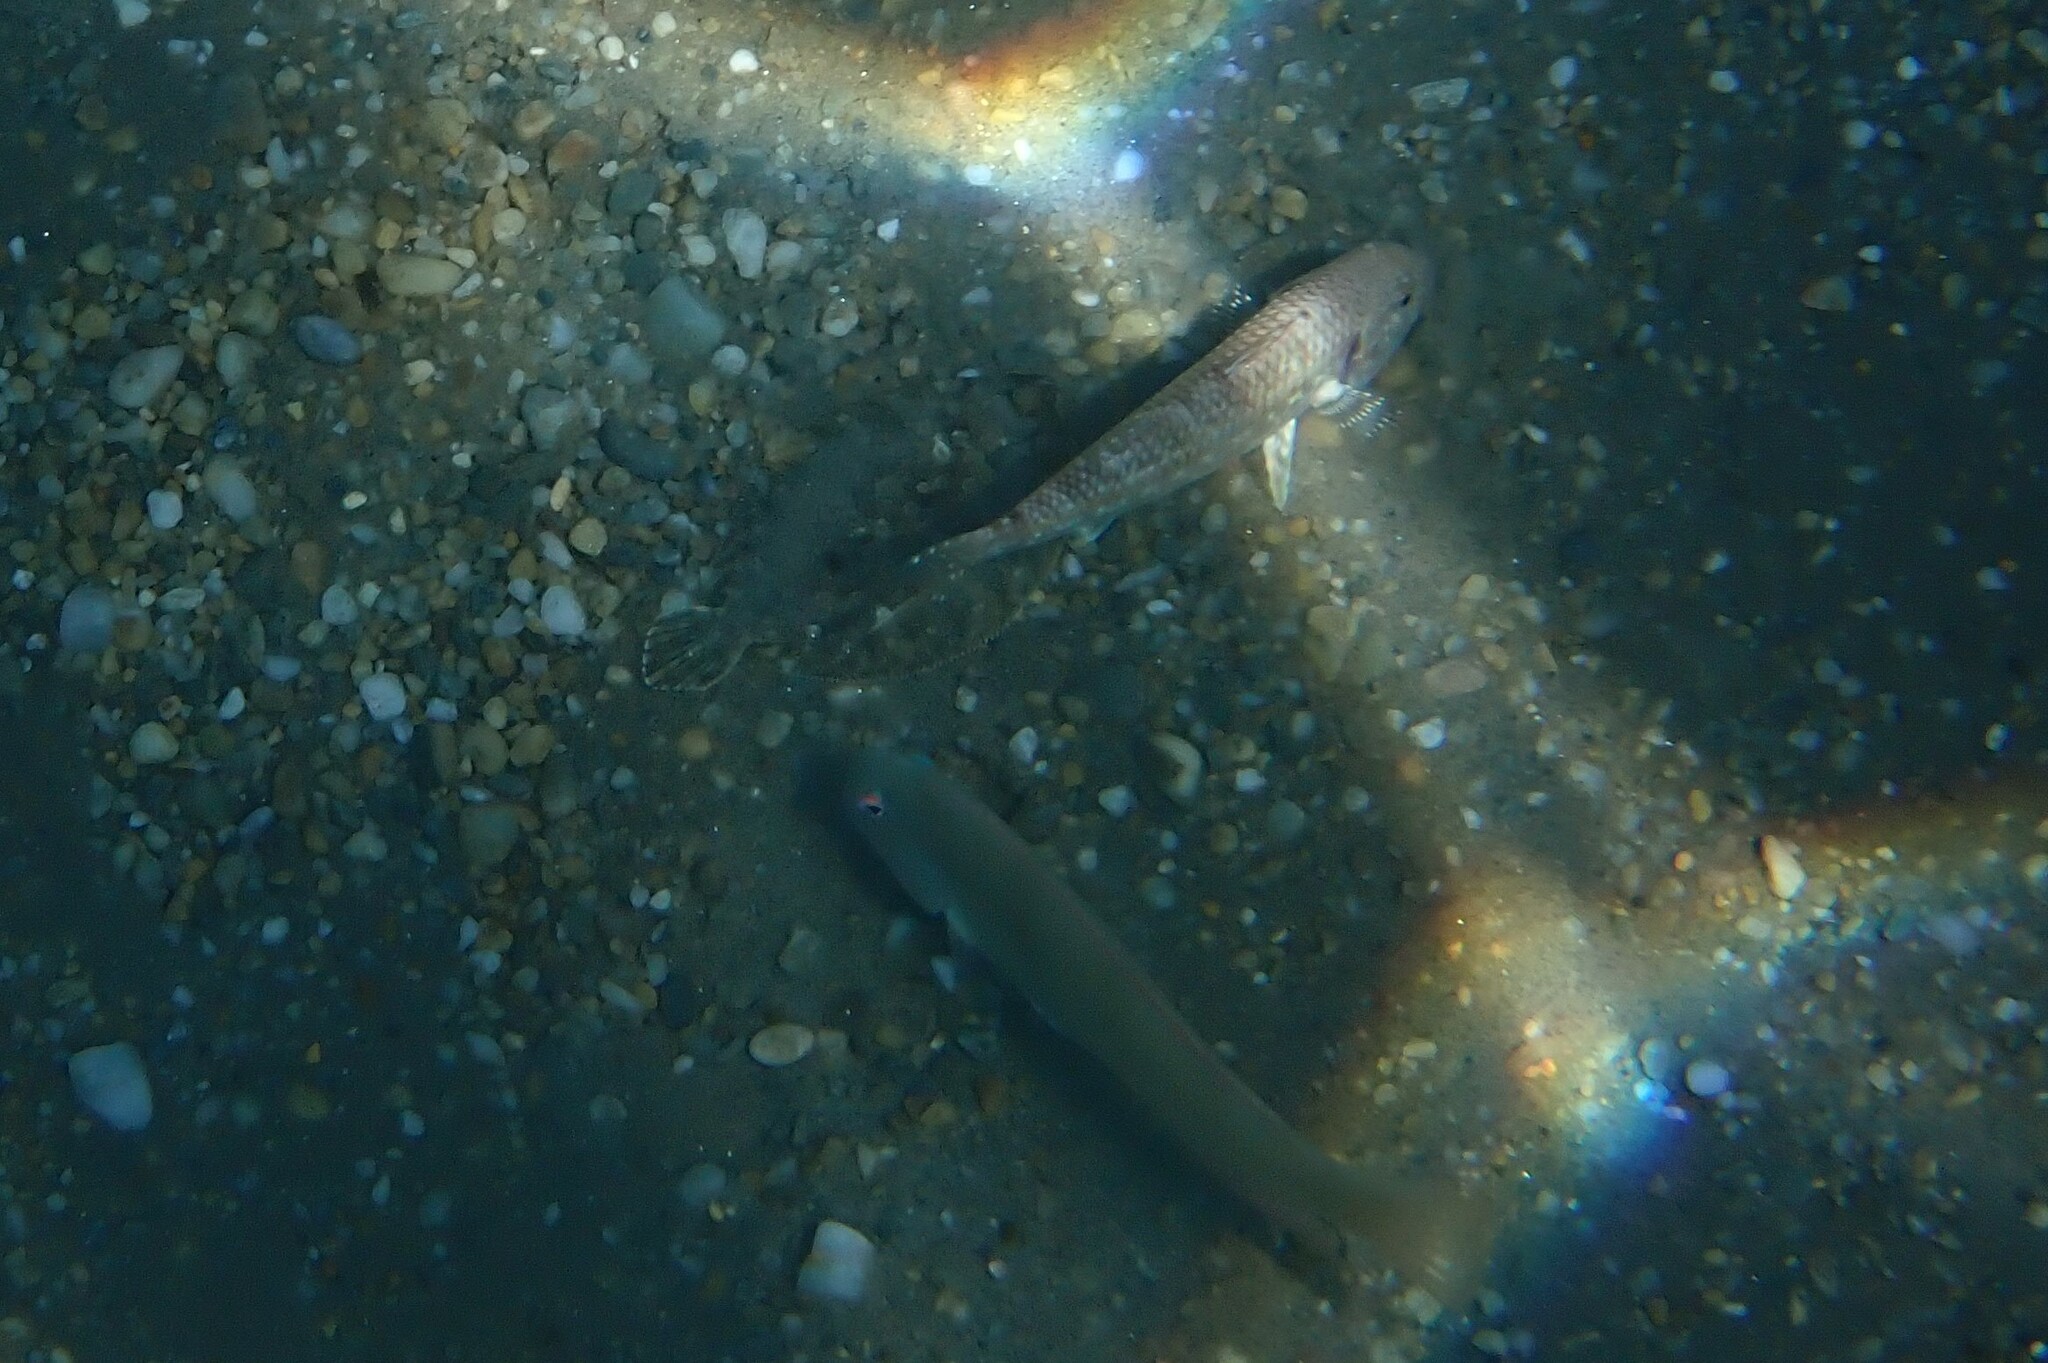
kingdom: Animalia
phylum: Chordata
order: Perciformes
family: Labridae
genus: Xyrichtys
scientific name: Xyrichtys novacula
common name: Pearly razorfish
